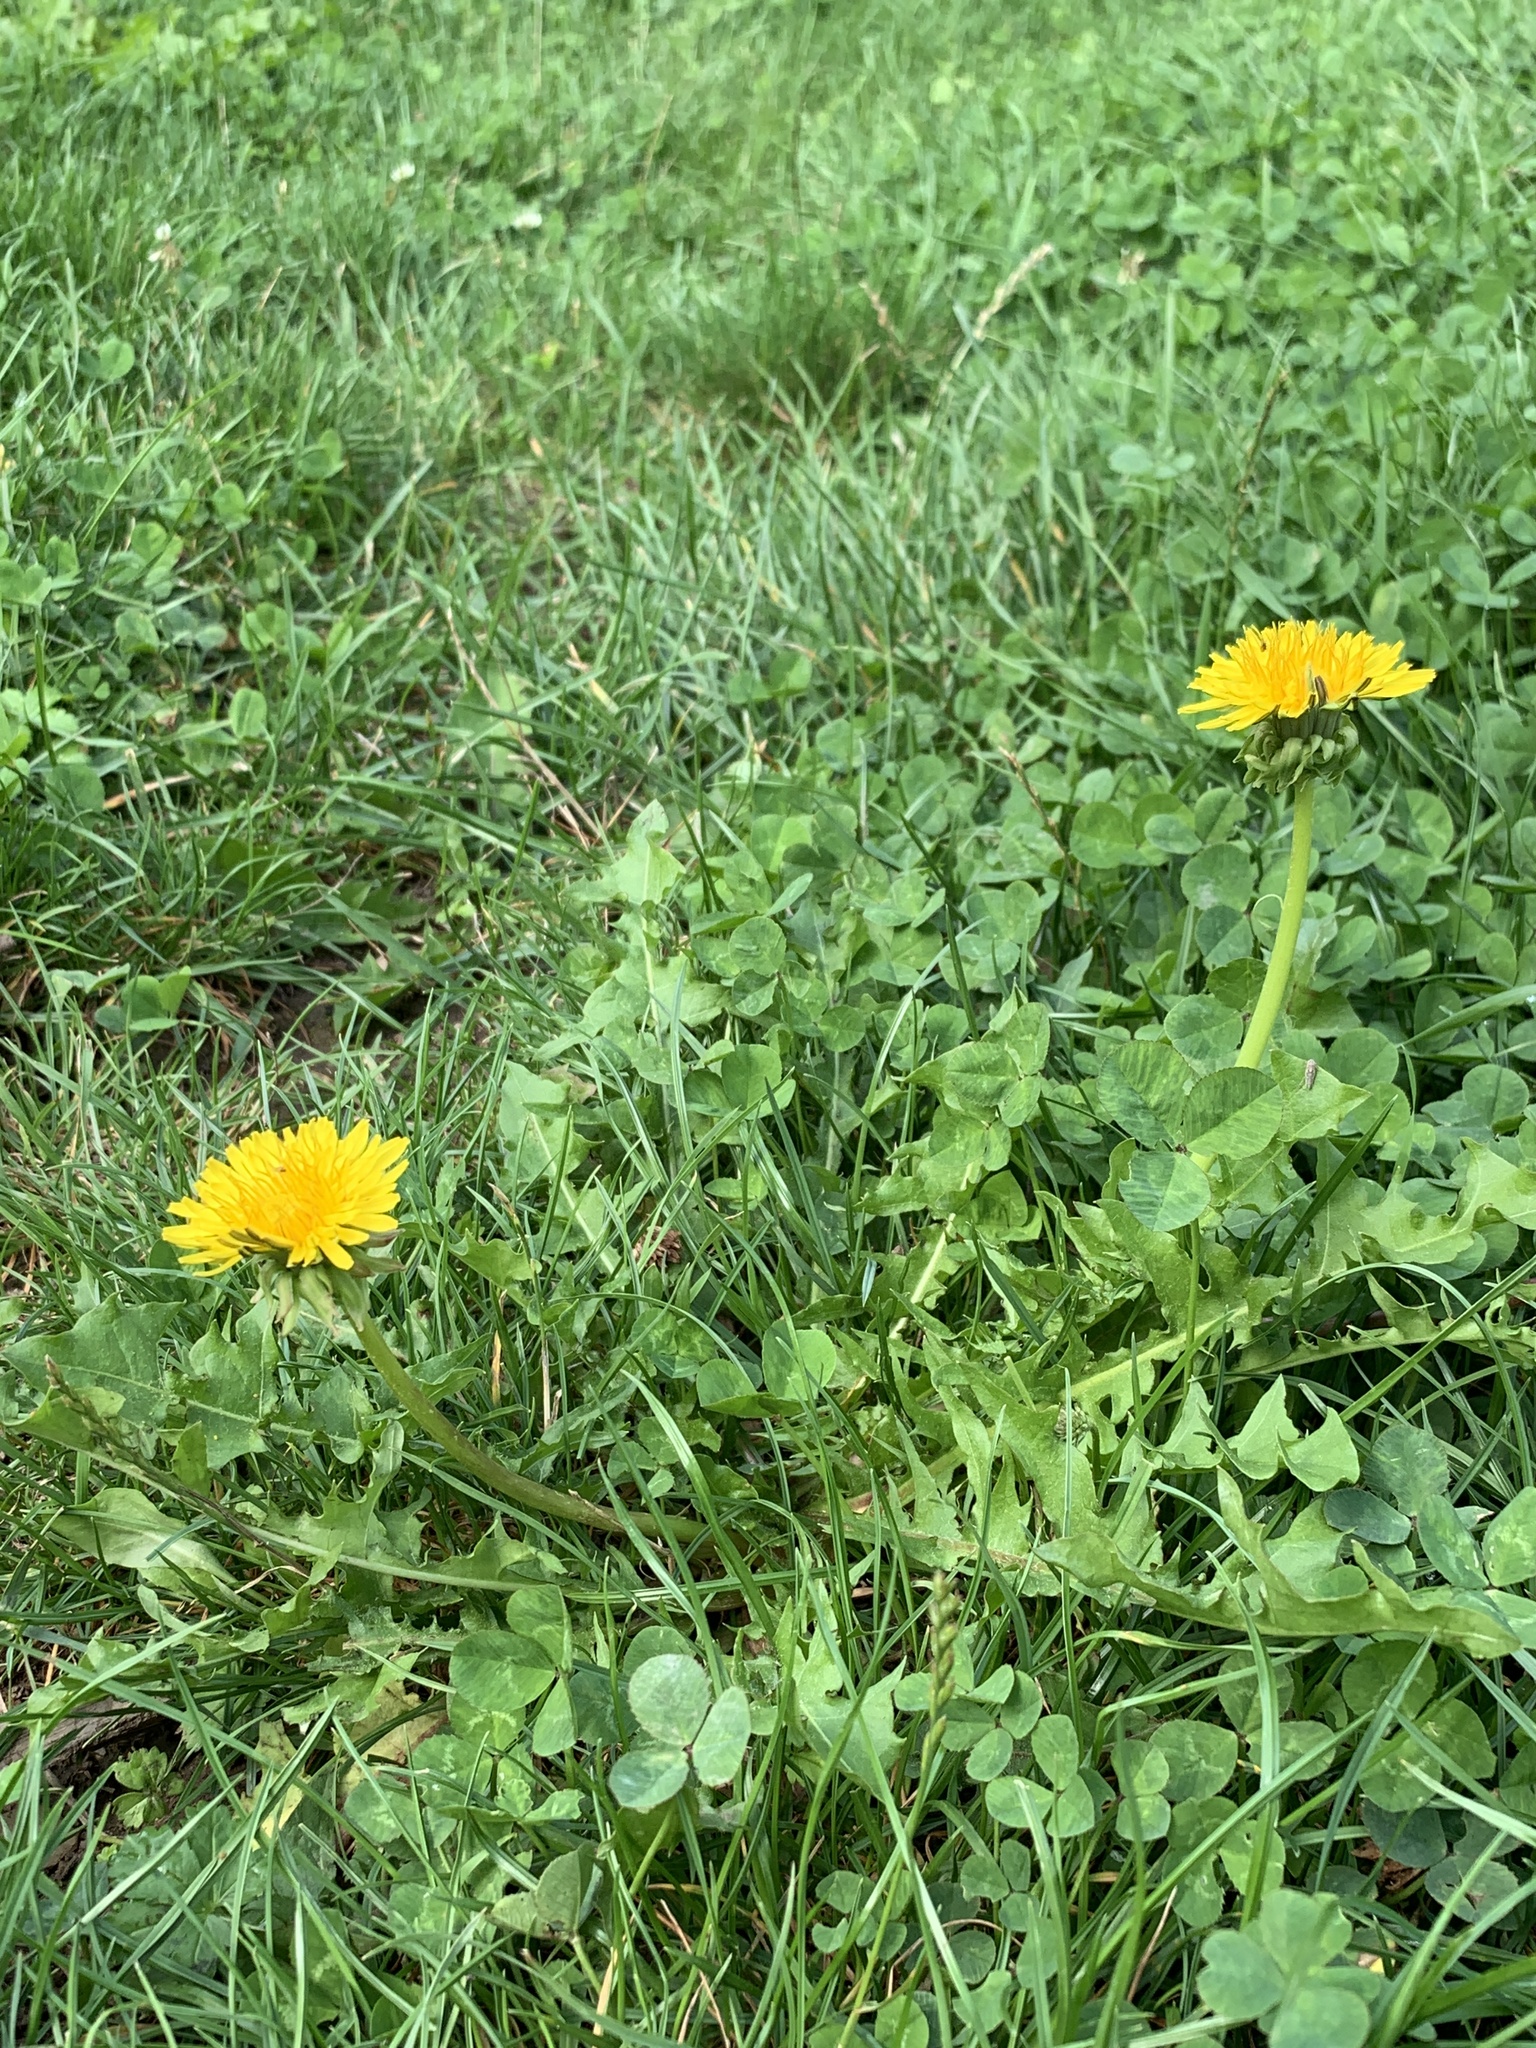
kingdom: Plantae
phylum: Tracheophyta
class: Magnoliopsida
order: Asterales
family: Asteraceae
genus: Taraxacum
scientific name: Taraxacum officinale
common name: Common dandelion
